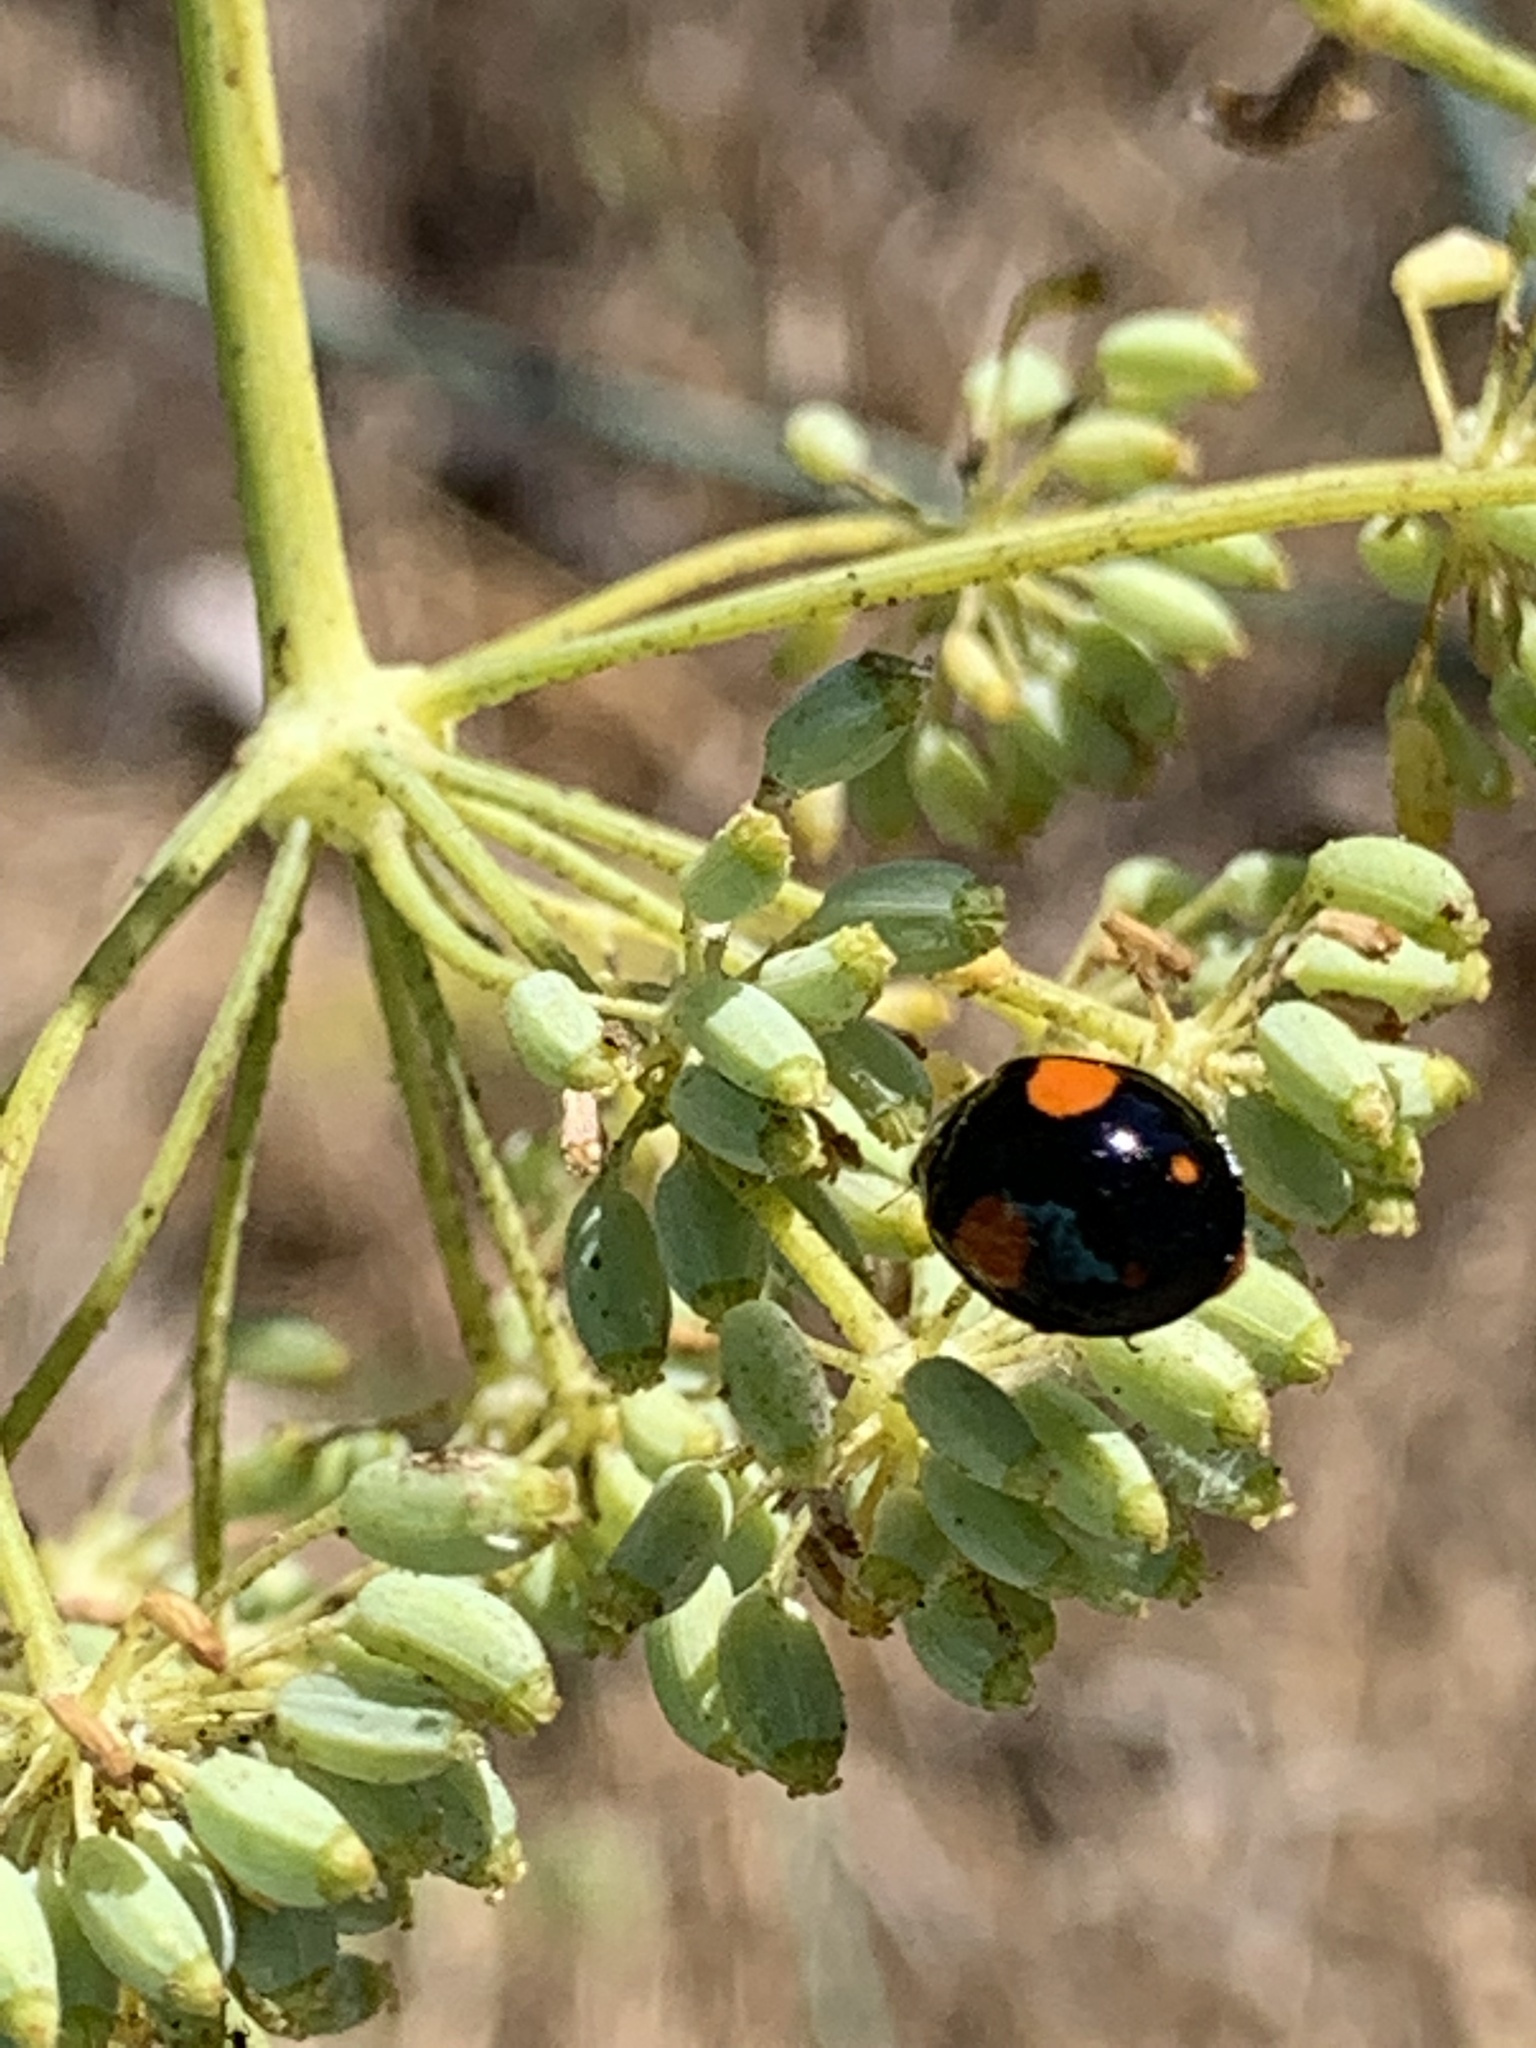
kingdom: Animalia
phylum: Arthropoda
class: Insecta
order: Coleoptera
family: Coccinellidae
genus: Harmonia
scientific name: Harmonia axyridis
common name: Harlequin ladybird
